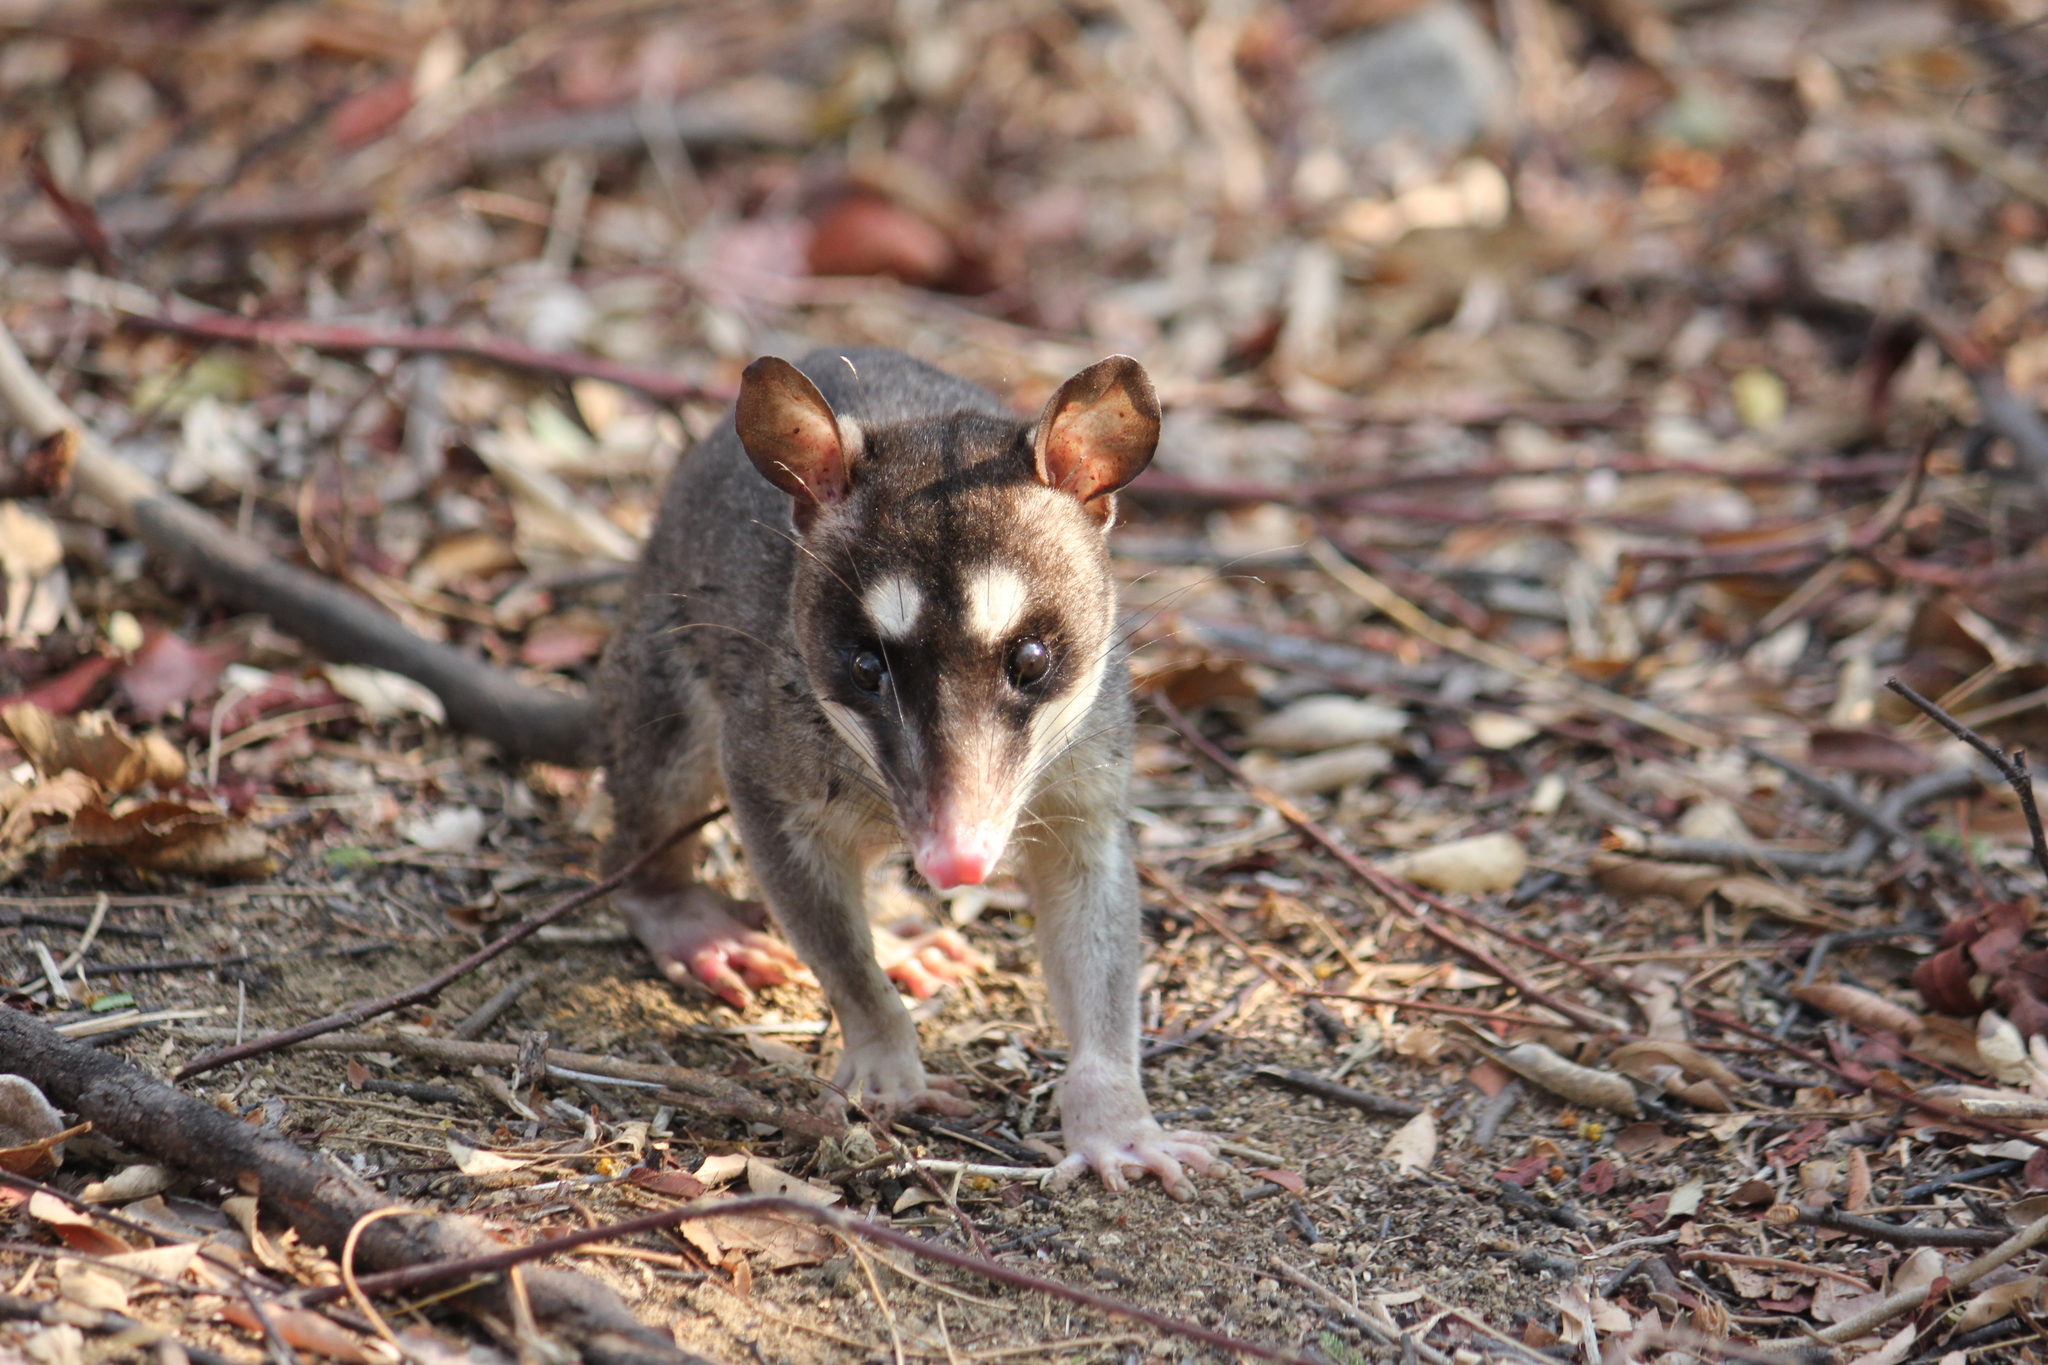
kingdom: Animalia
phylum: Chordata
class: Mammalia
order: Didelphimorphia
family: Didelphidae
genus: Philander
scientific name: Philander
